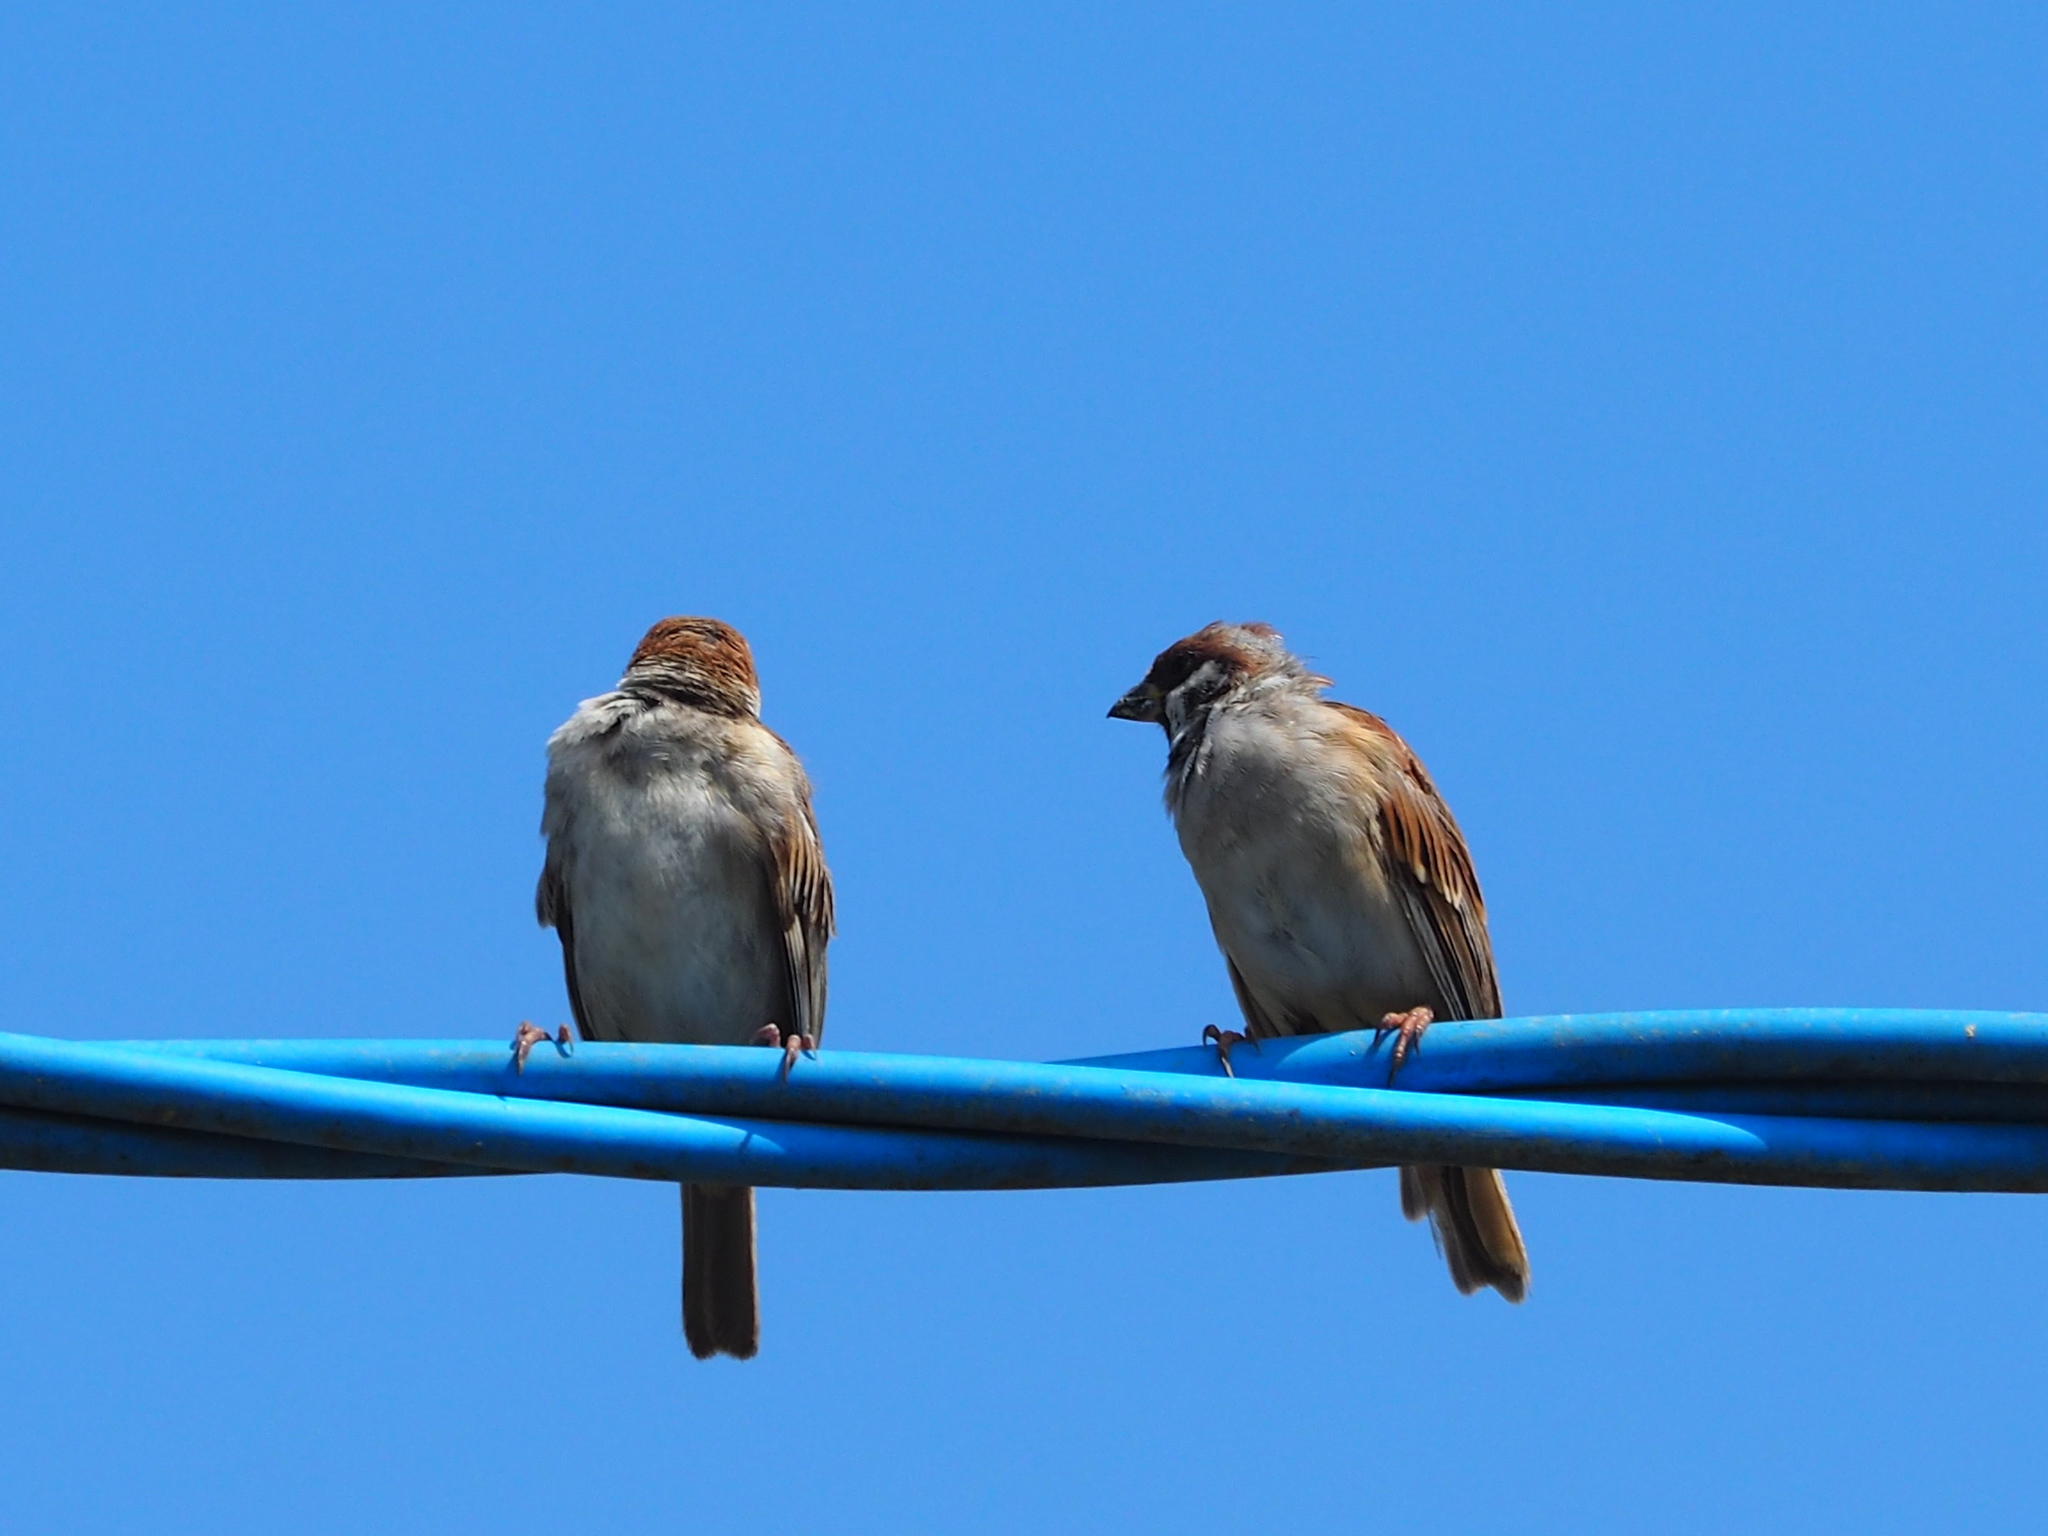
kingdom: Animalia
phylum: Chordata
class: Aves
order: Passeriformes
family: Passeridae
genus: Passer
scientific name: Passer montanus
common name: Eurasian tree sparrow
